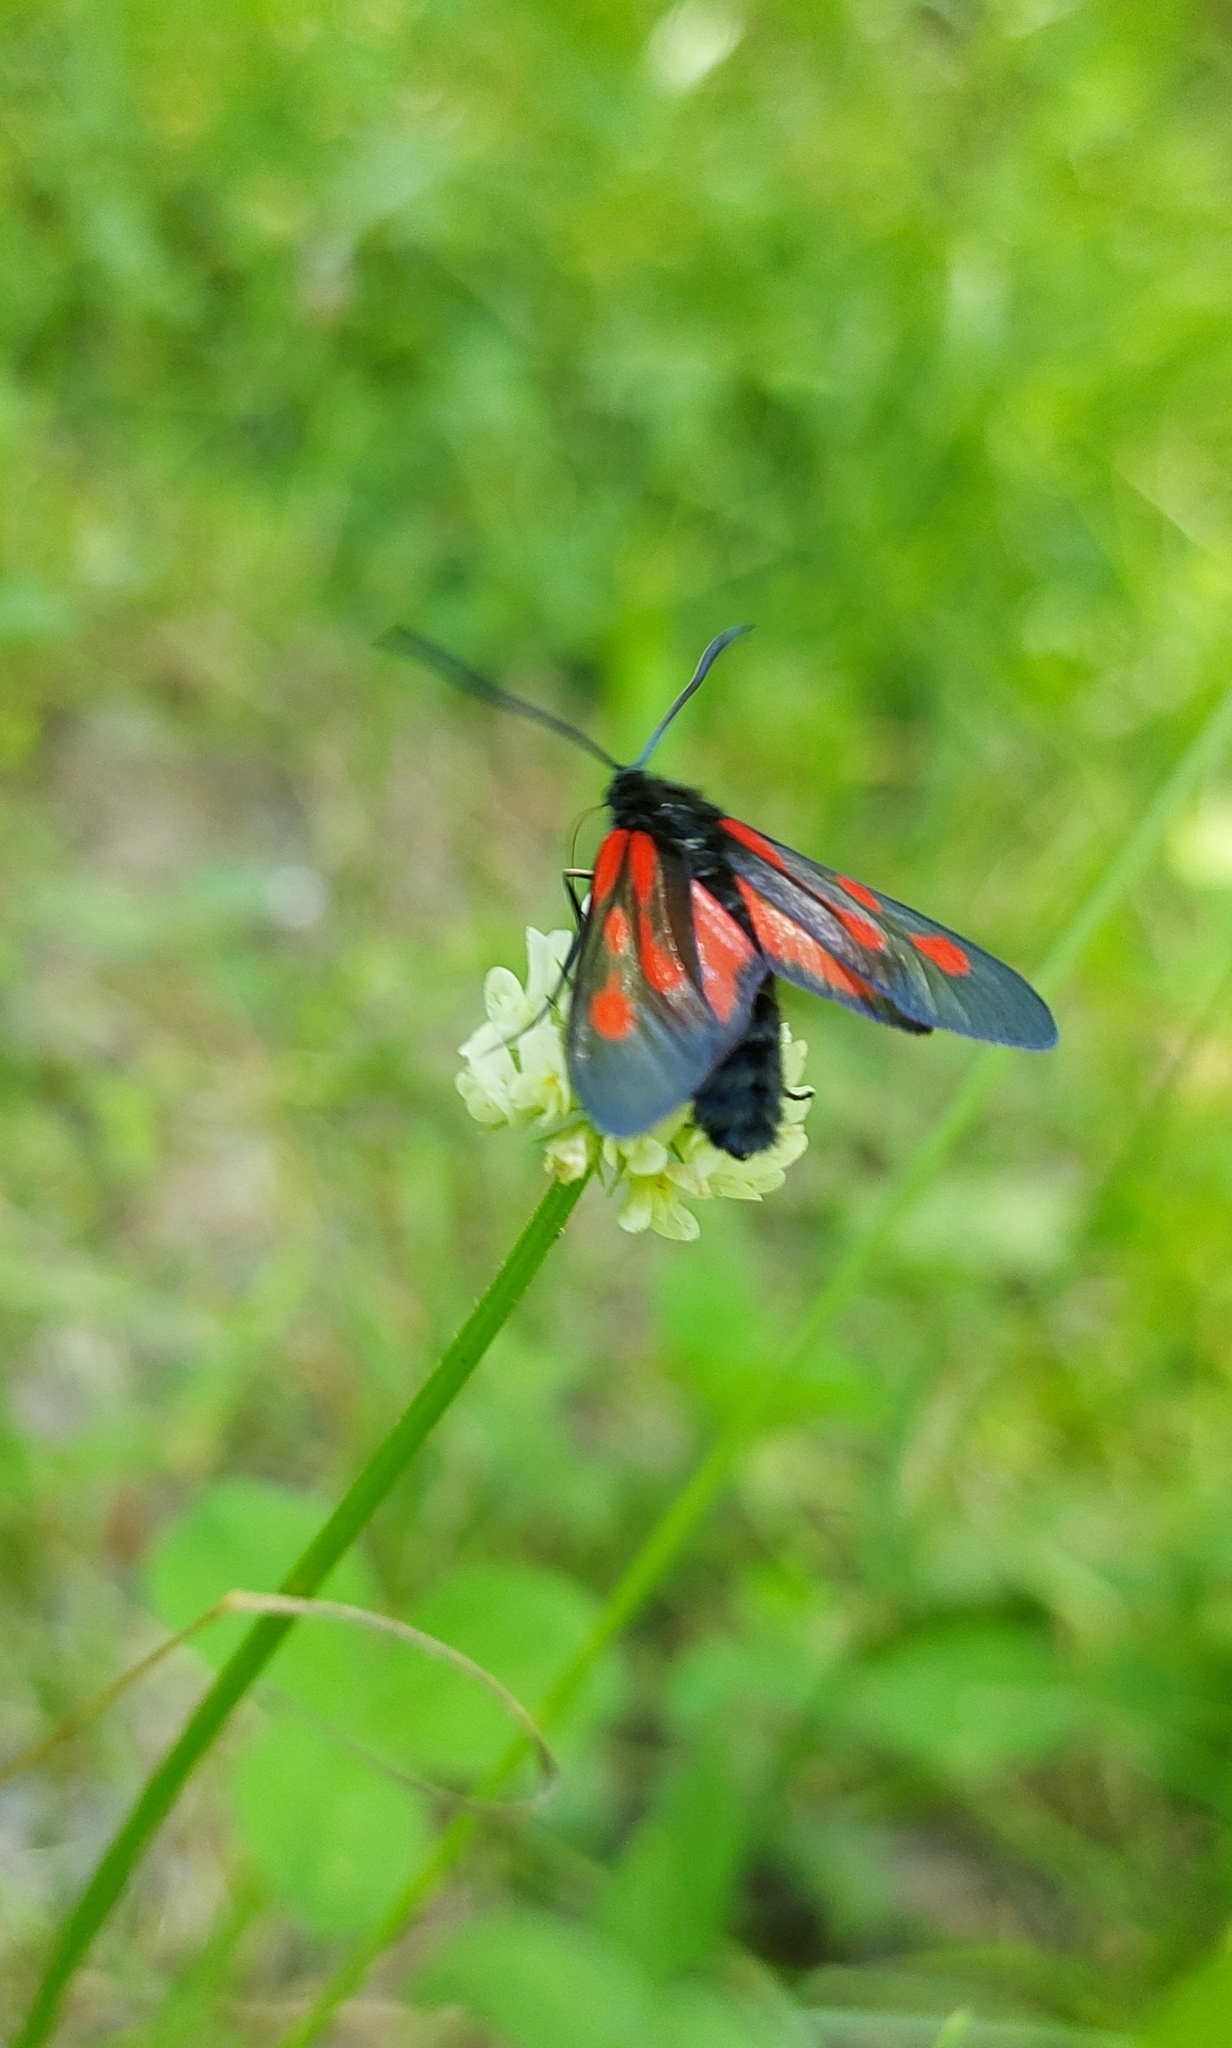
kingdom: Animalia
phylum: Arthropoda
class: Insecta
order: Lepidoptera
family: Zygaenidae
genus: Zygaena
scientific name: Zygaena osterodensis
